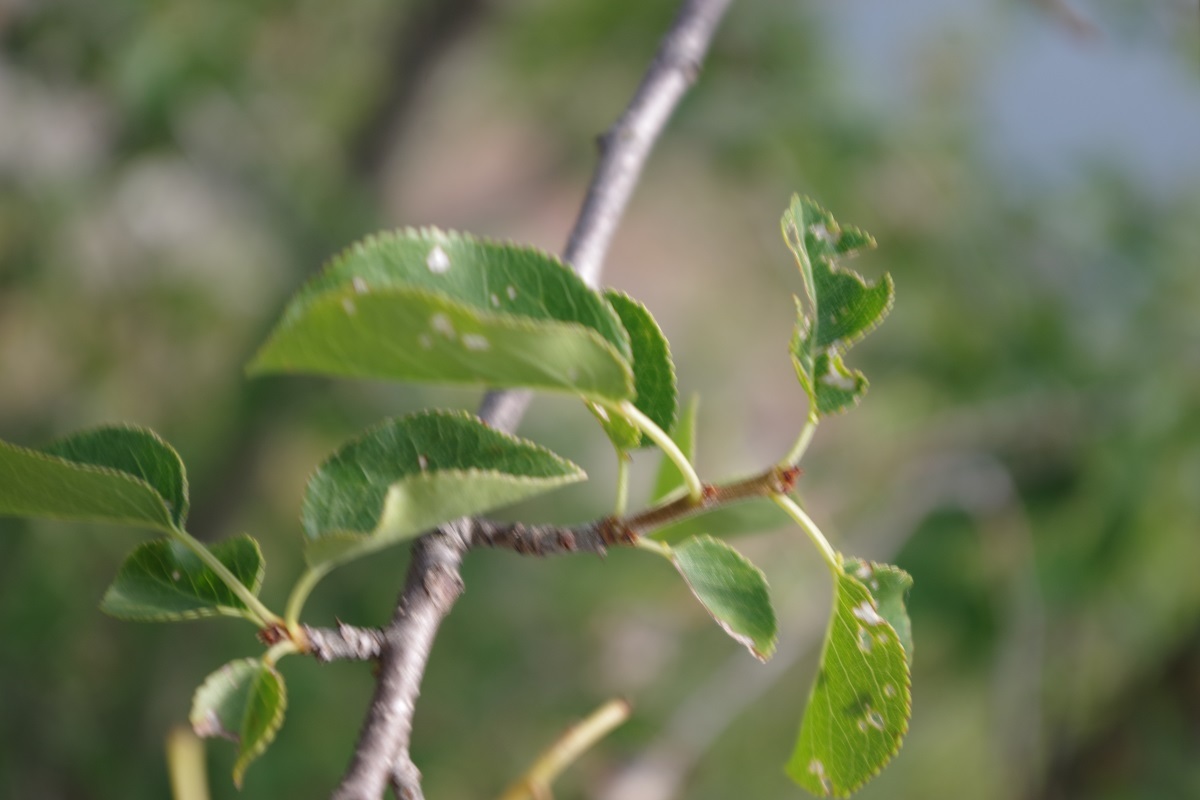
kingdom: Plantae
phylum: Tracheophyta
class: Magnoliopsida
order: Rosales
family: Rosaceae
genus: Prunus
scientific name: Prunus mahaleb
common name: Mahaleb cherry
